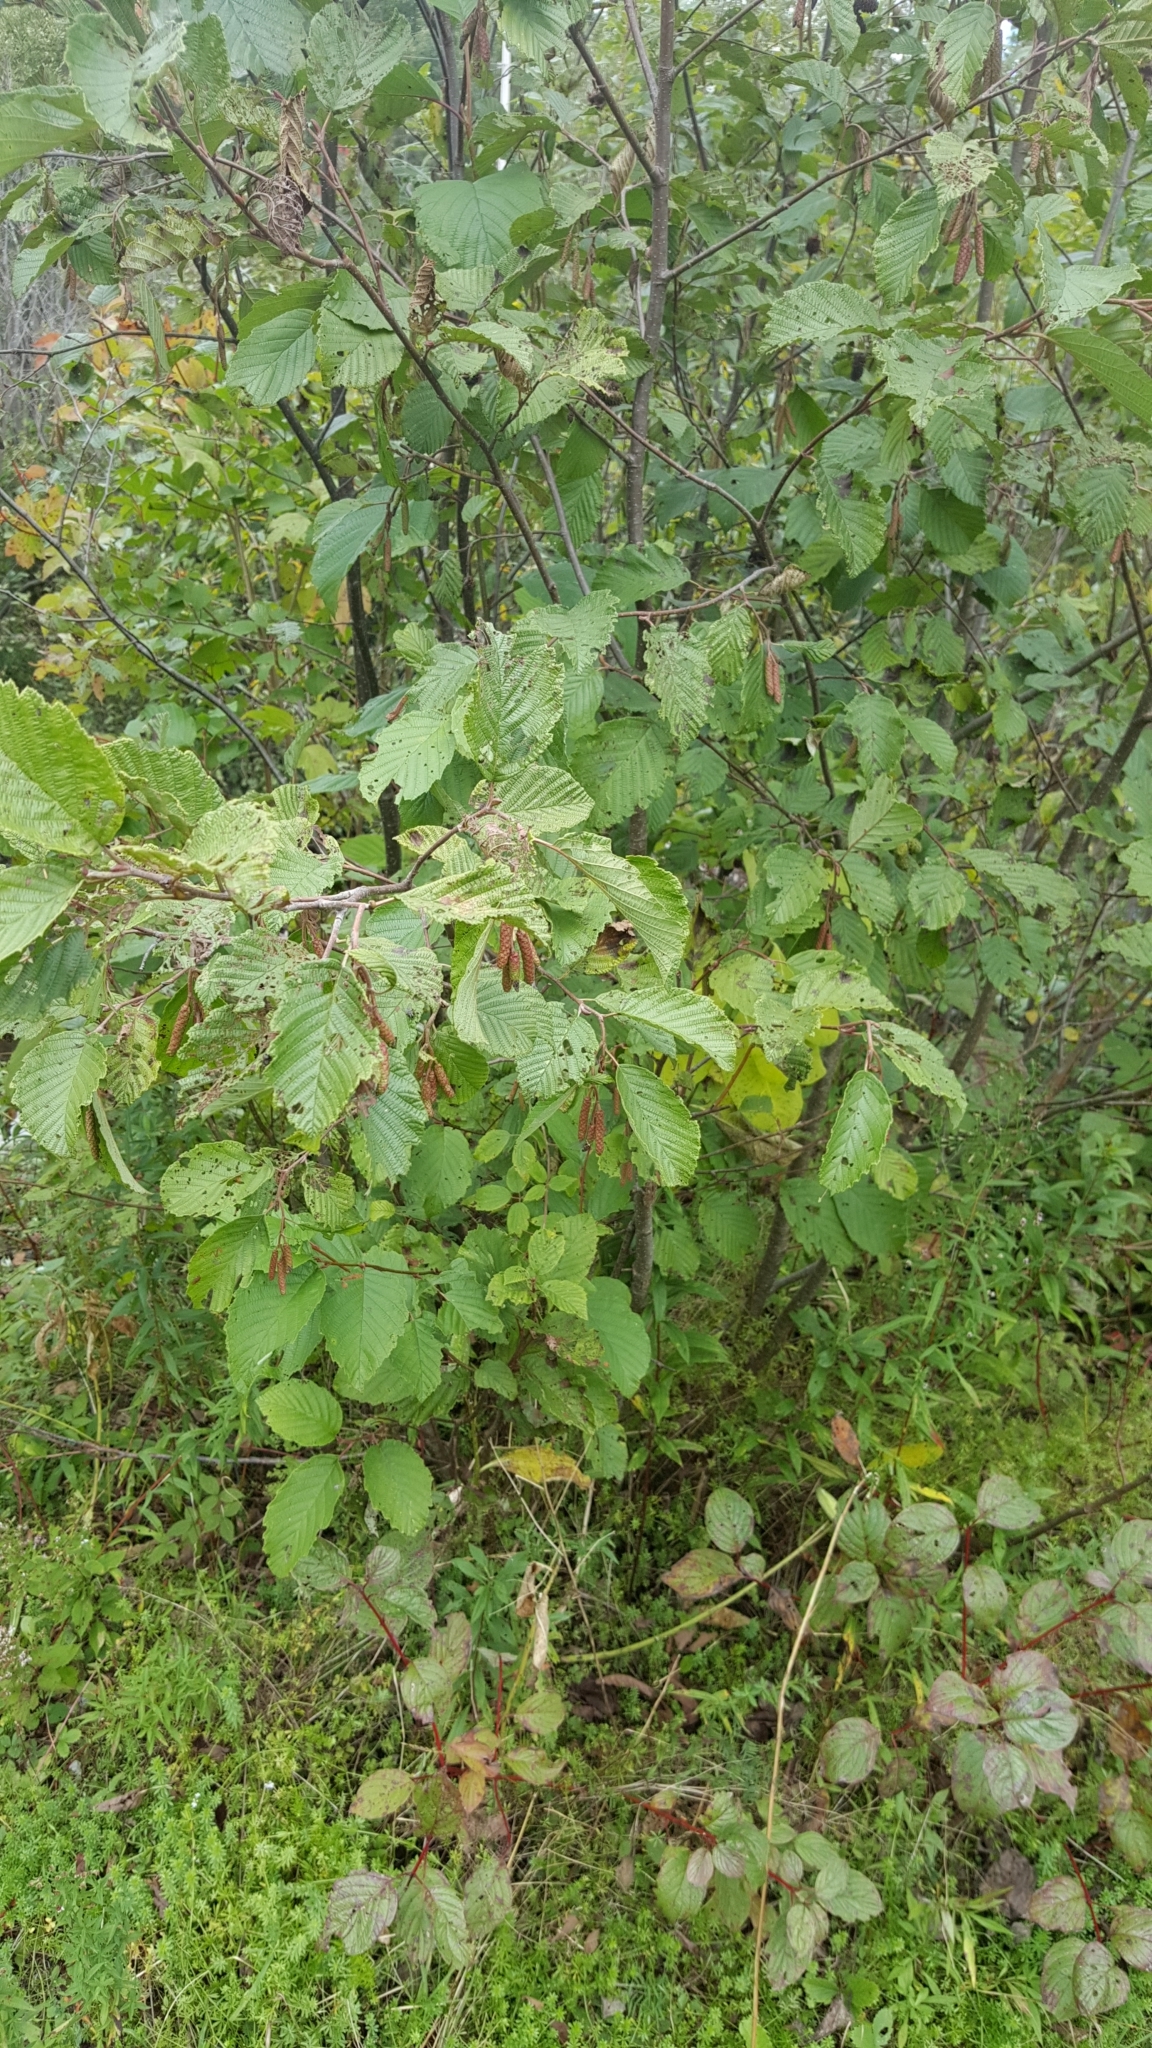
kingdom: Plantae
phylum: Tracheophyta
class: Magnoliopsida
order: Fagales
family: Betulaceae
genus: Alnus
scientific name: Alnus incana
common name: Grey alder
